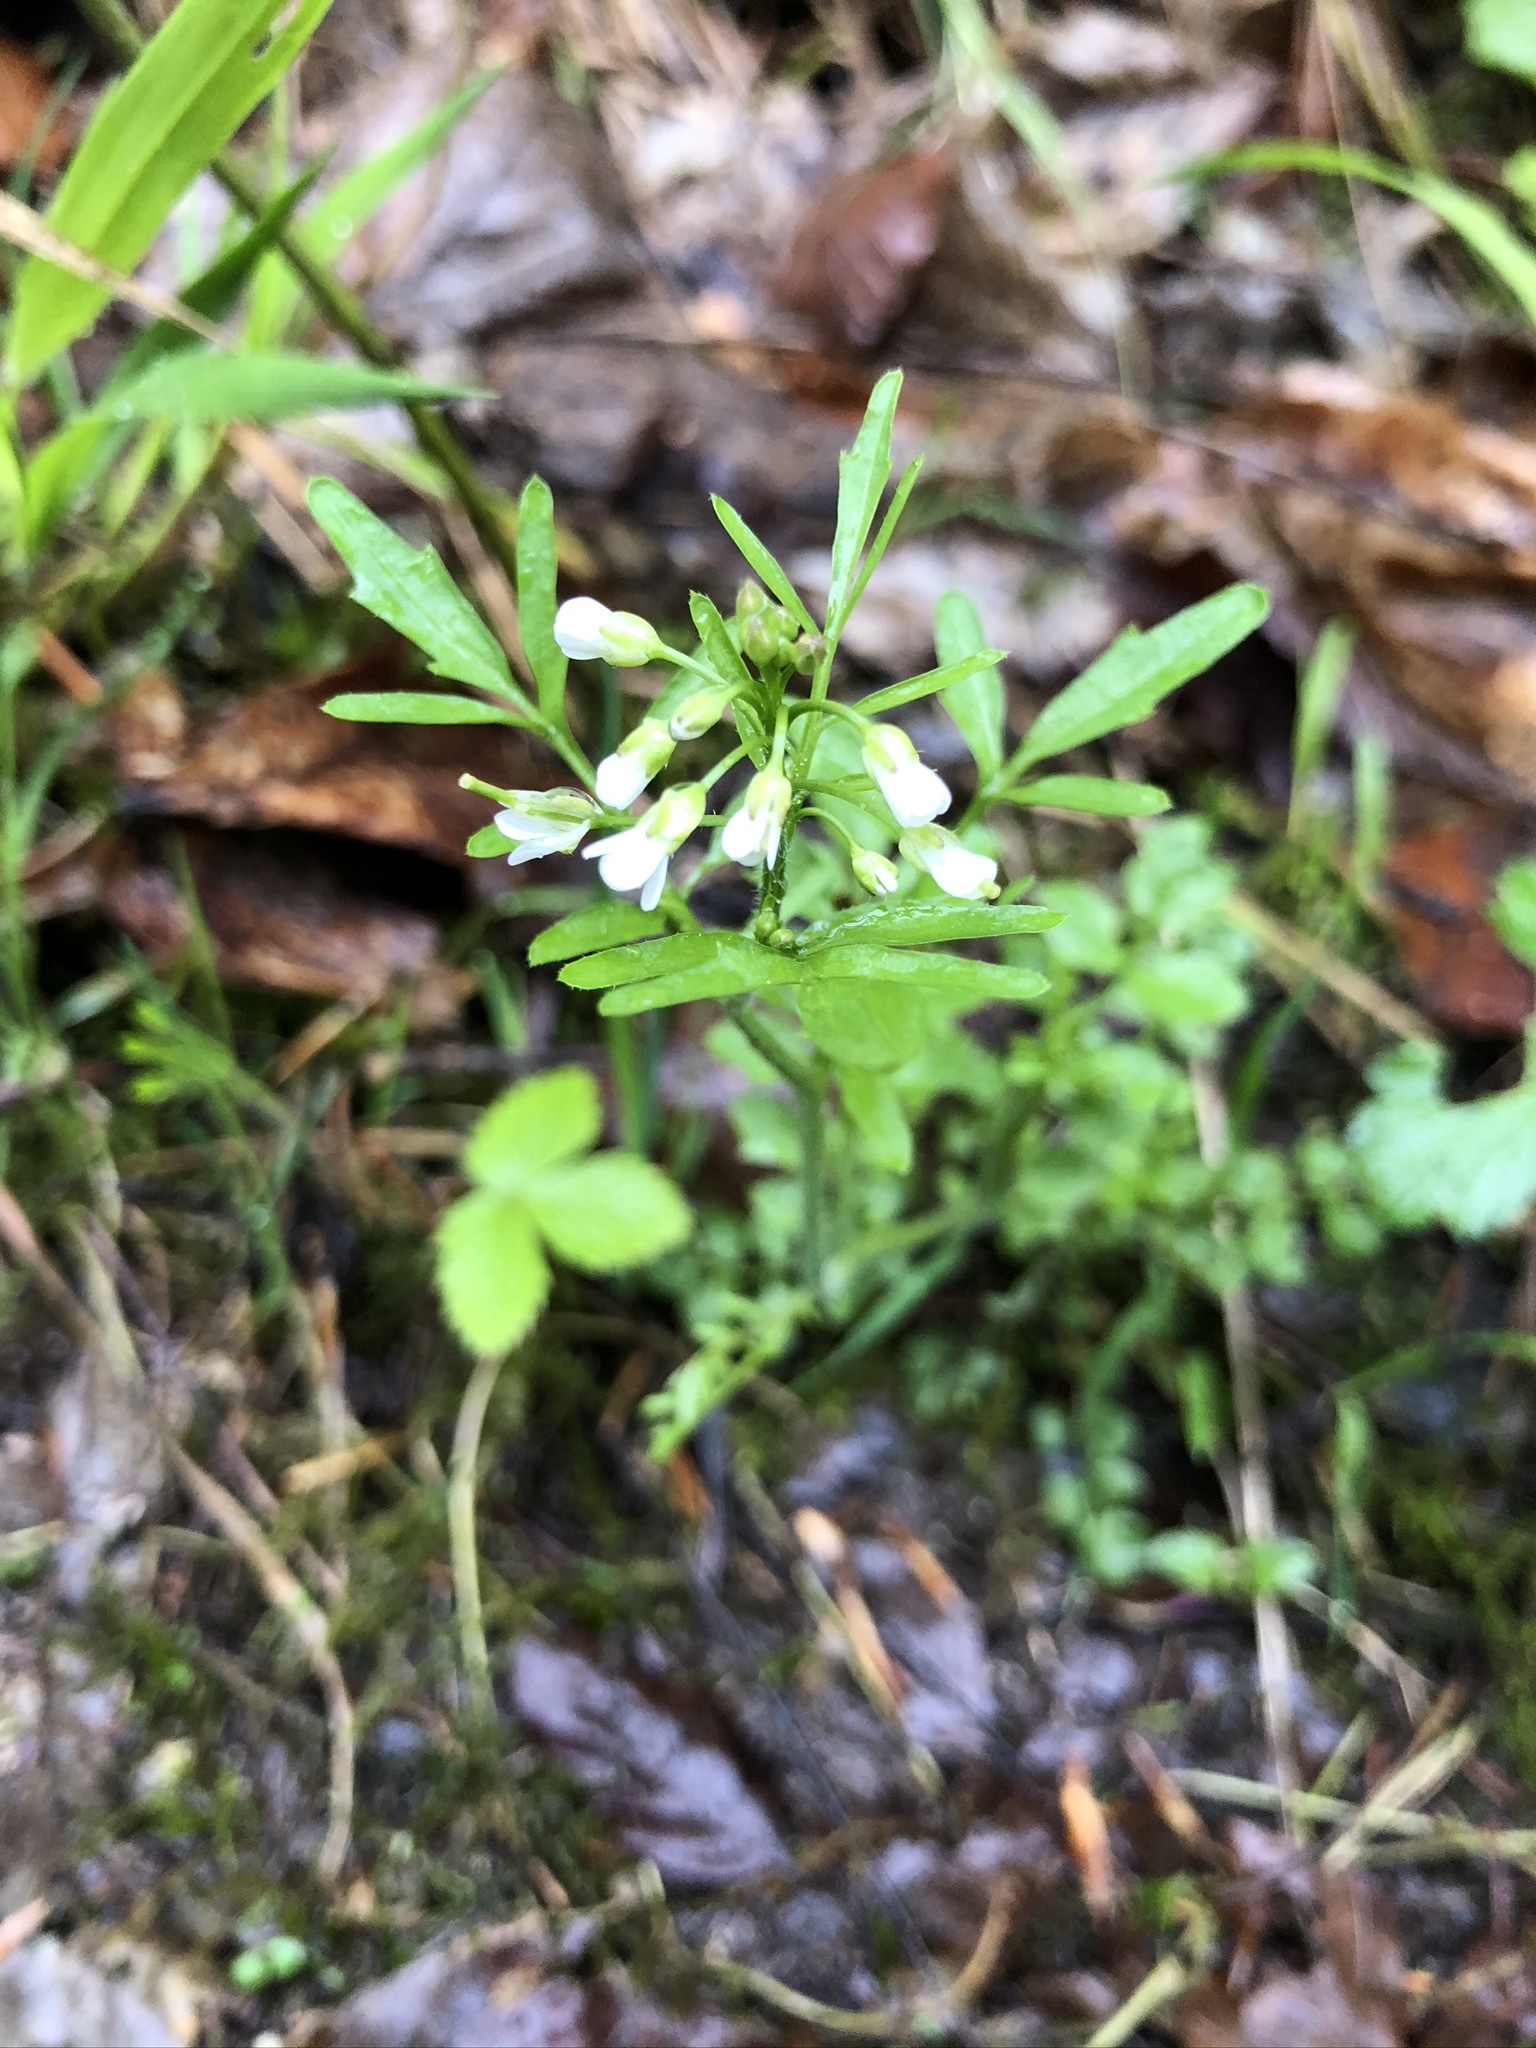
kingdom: Plantae
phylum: Tracheophyta
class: Magnoliopsida
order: Brassicales
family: Brassicaceae
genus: Cardamine
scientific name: Cardamine flexuosa
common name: Woodland bittercress
